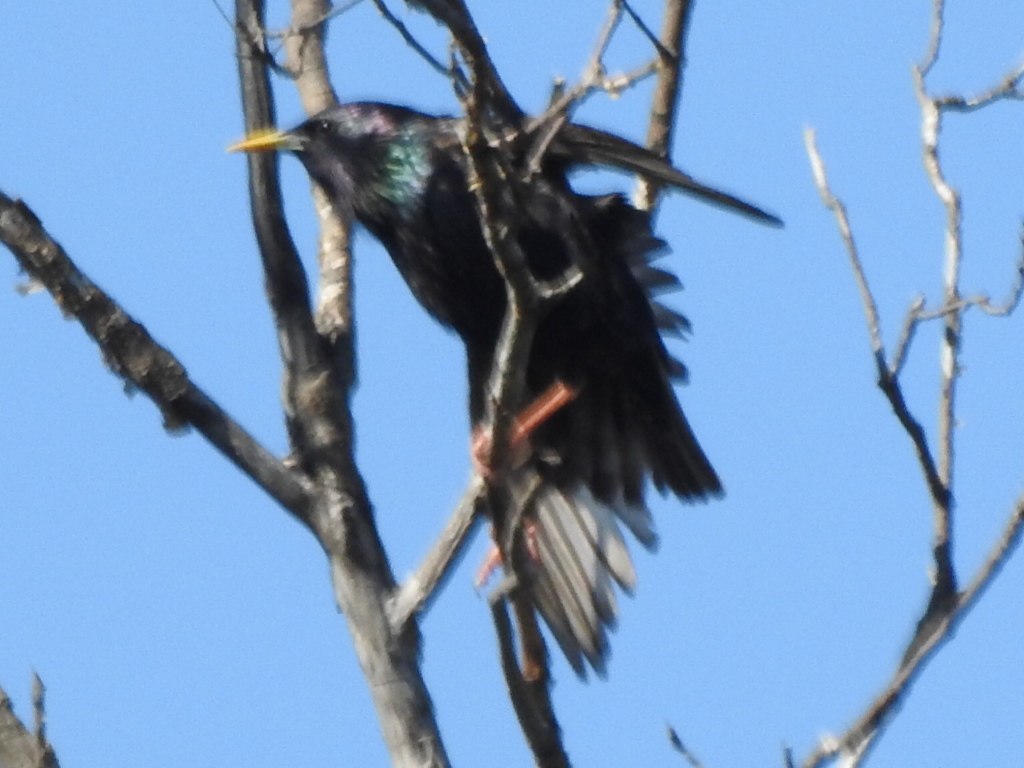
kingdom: Animalia
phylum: Chordata
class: Aves
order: Passeriformes
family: Sturnidae
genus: Sturnus
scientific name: Sturnus vulgaris
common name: Common starling
